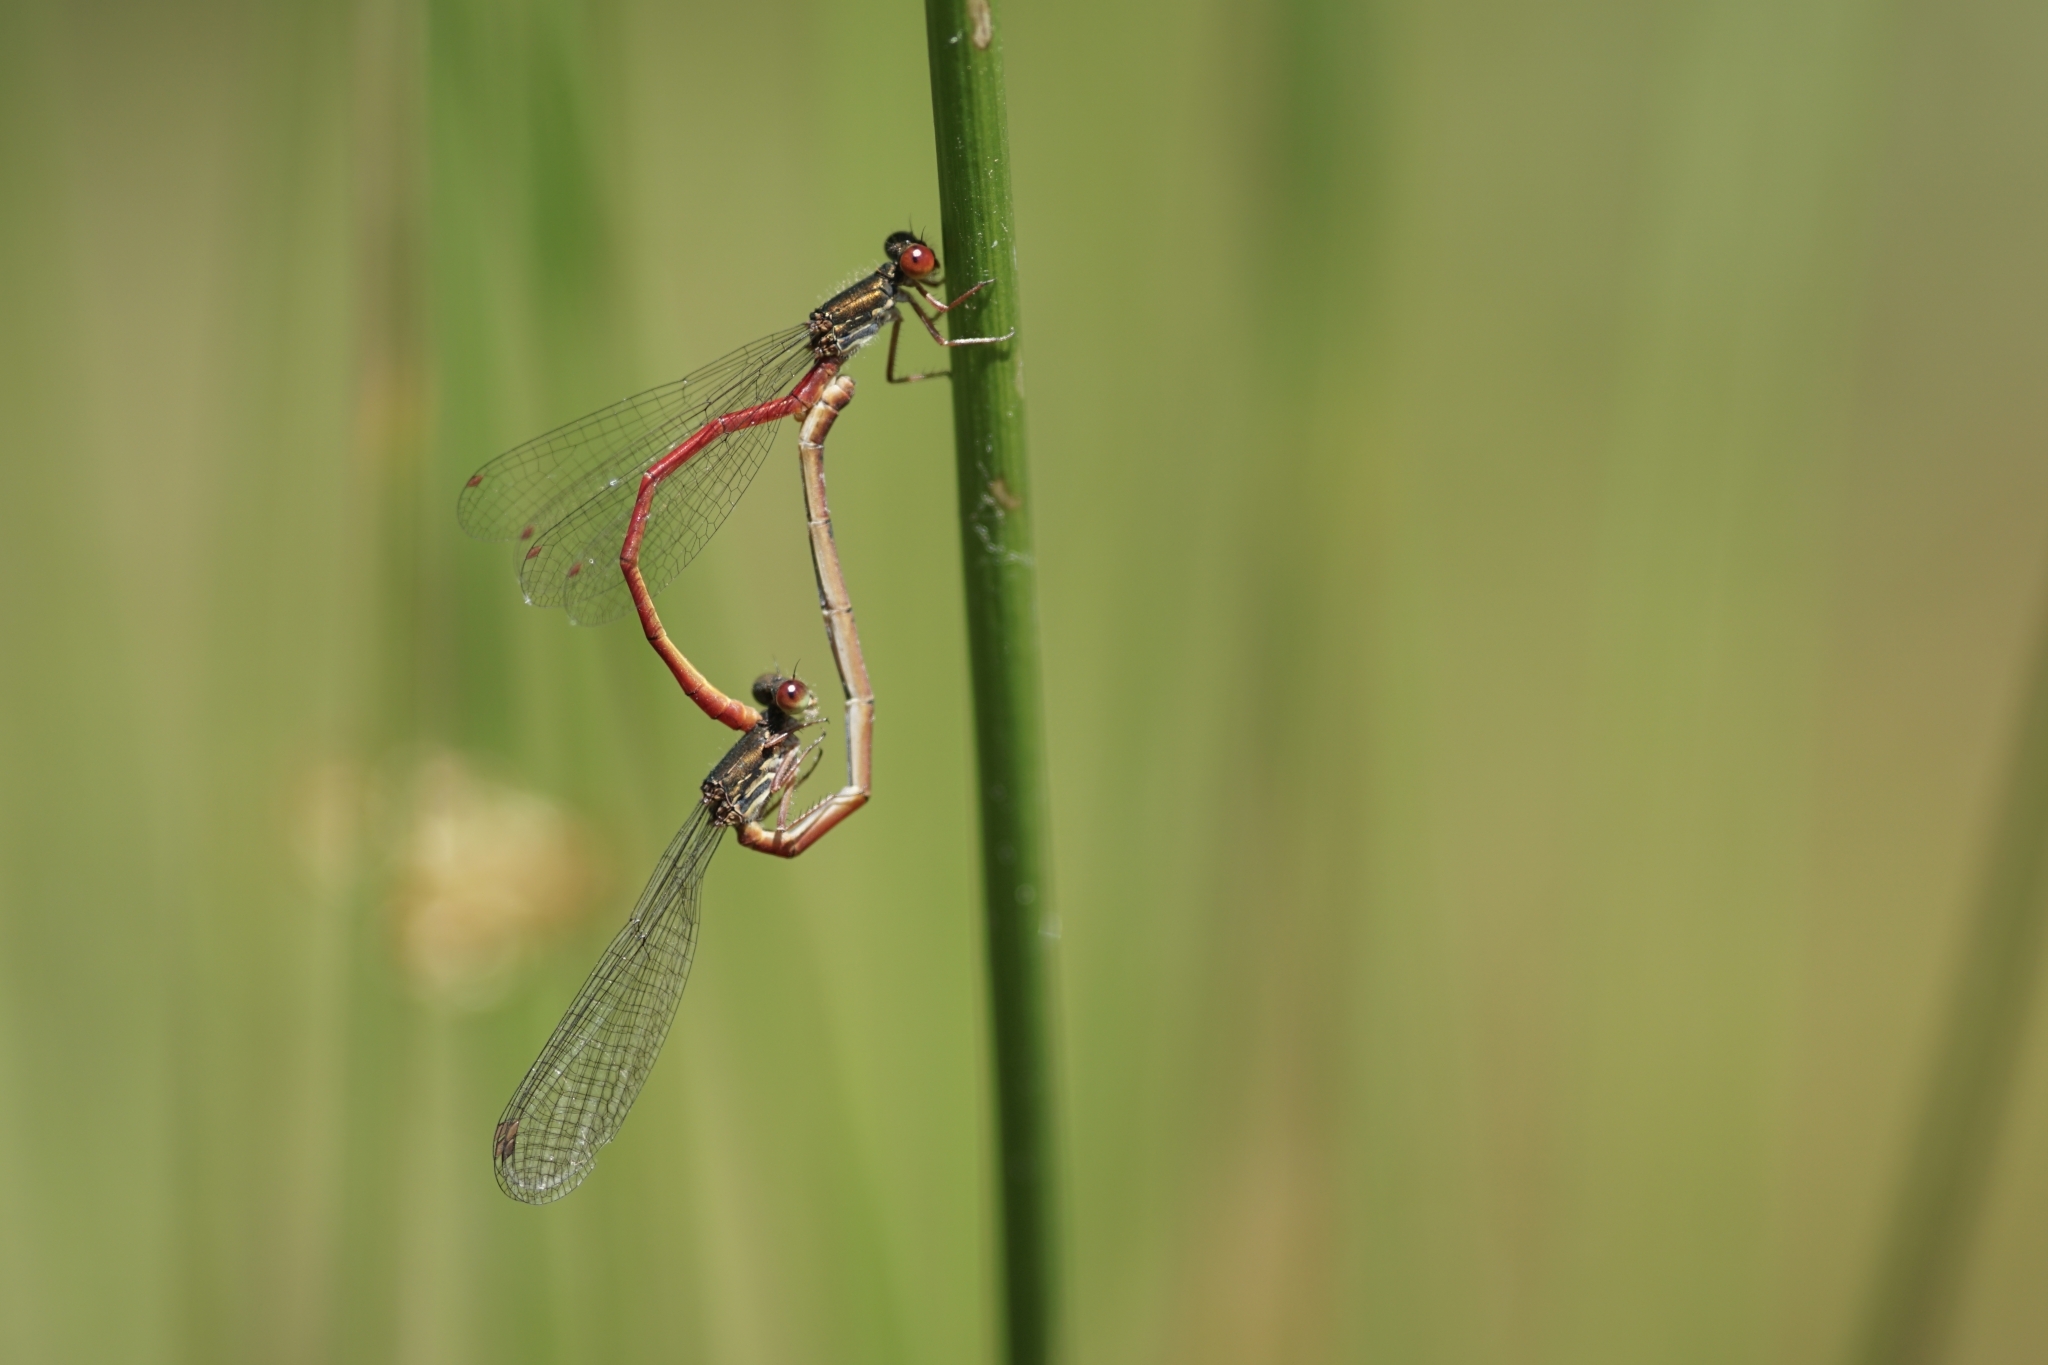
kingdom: Animalia
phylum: Arthropoda
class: Insecta
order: Odonata
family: Coenagrionidae
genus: Ceriagrion
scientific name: Ceriagrion tenellum
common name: Small red damselfly
